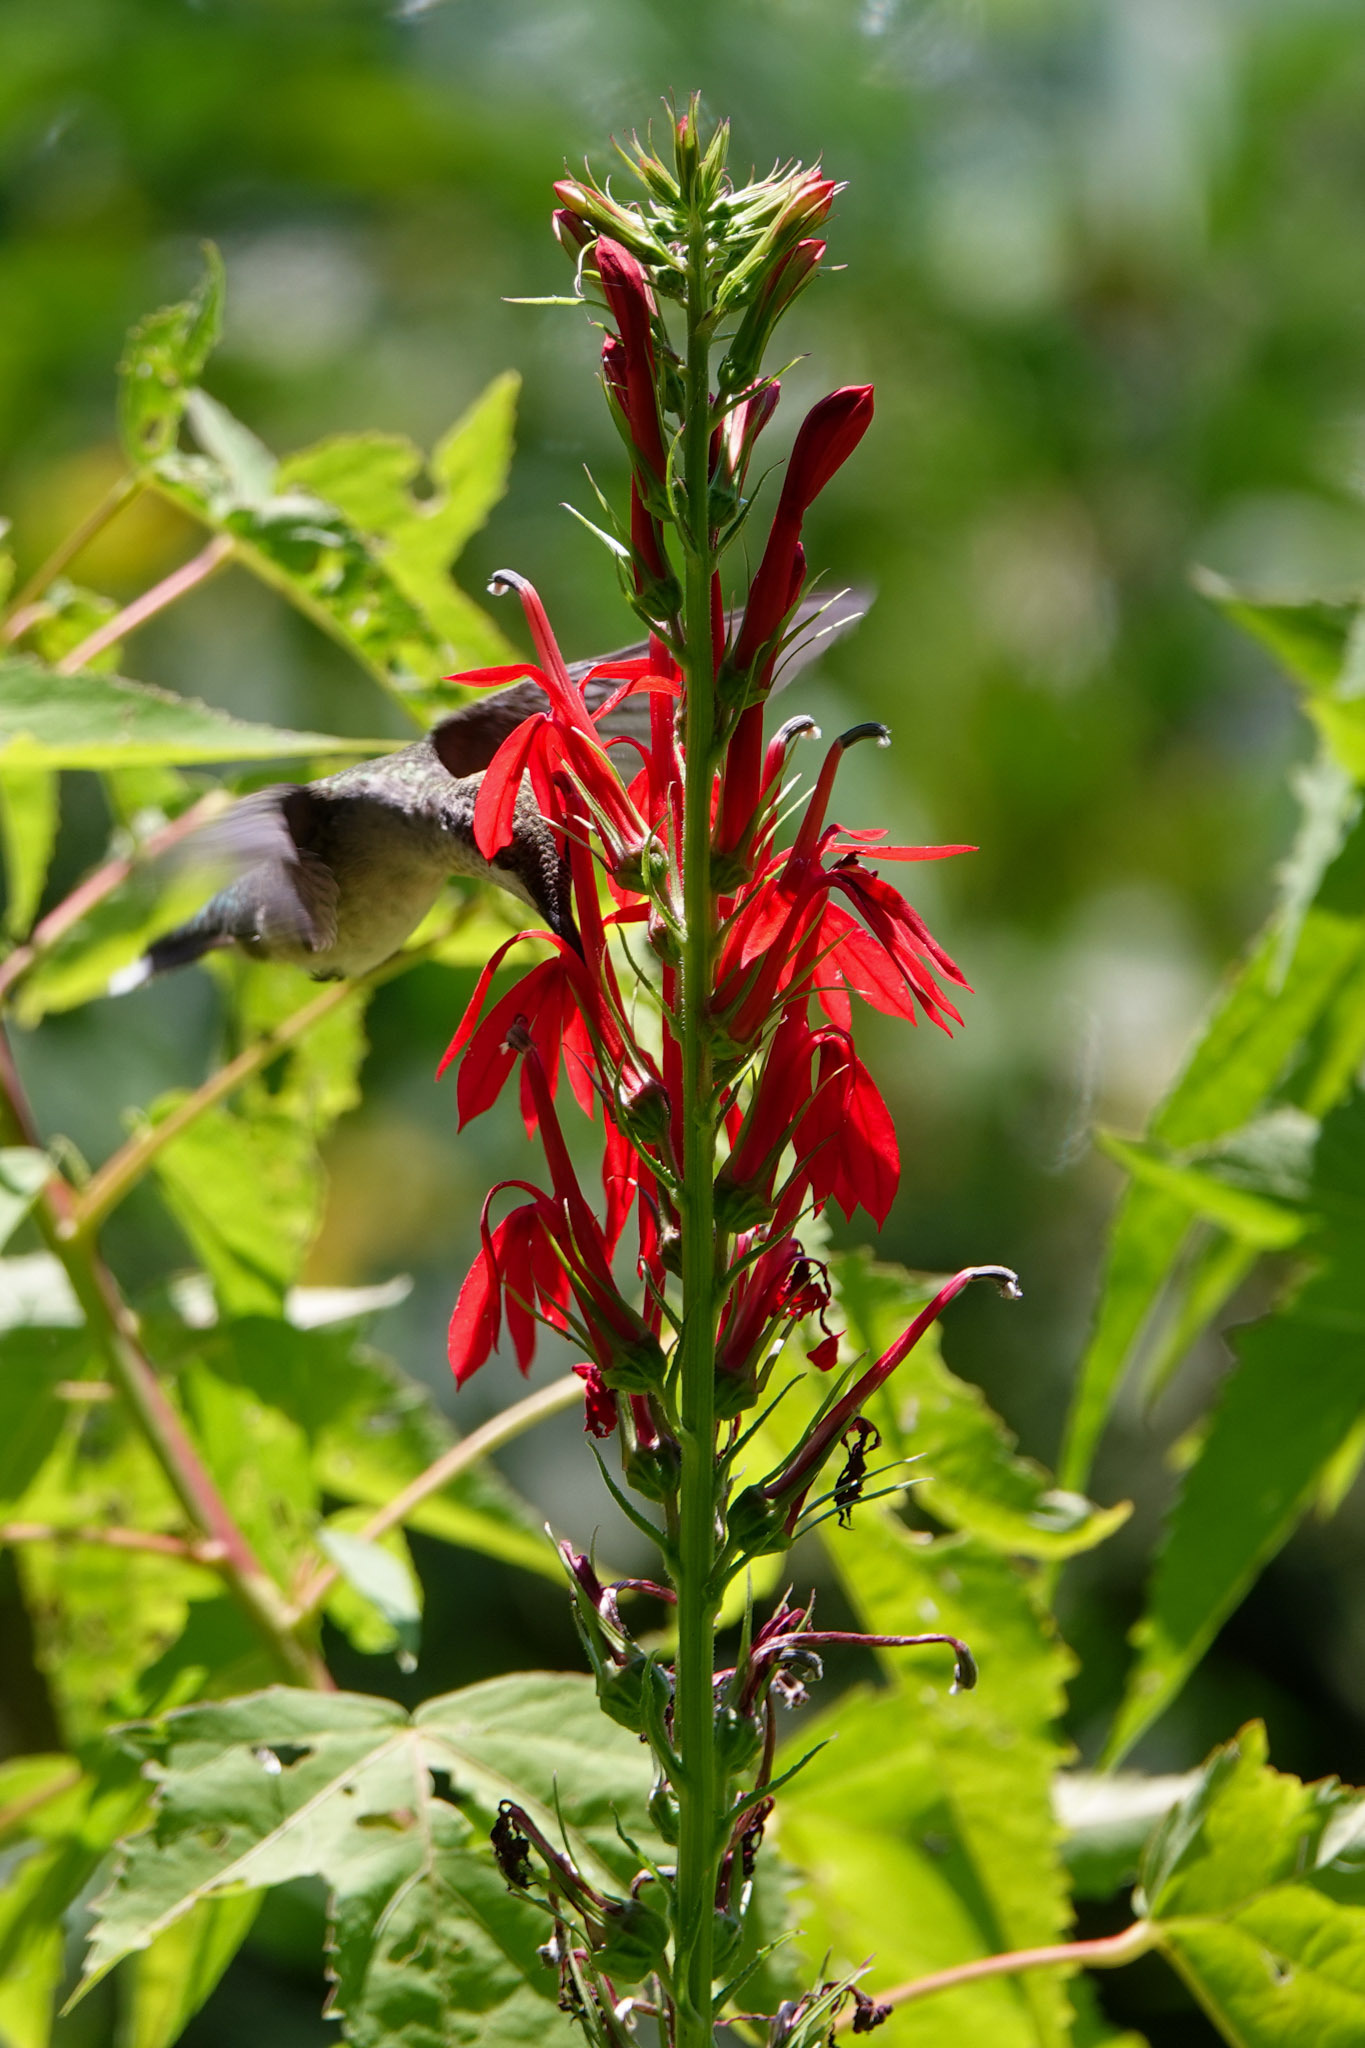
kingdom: Plantae
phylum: Tracheophyta
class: Magnoliopsida
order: Asterales
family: Campanulaceae
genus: Lobelia
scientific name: Lobelia cardinalis
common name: Cardinal flower
